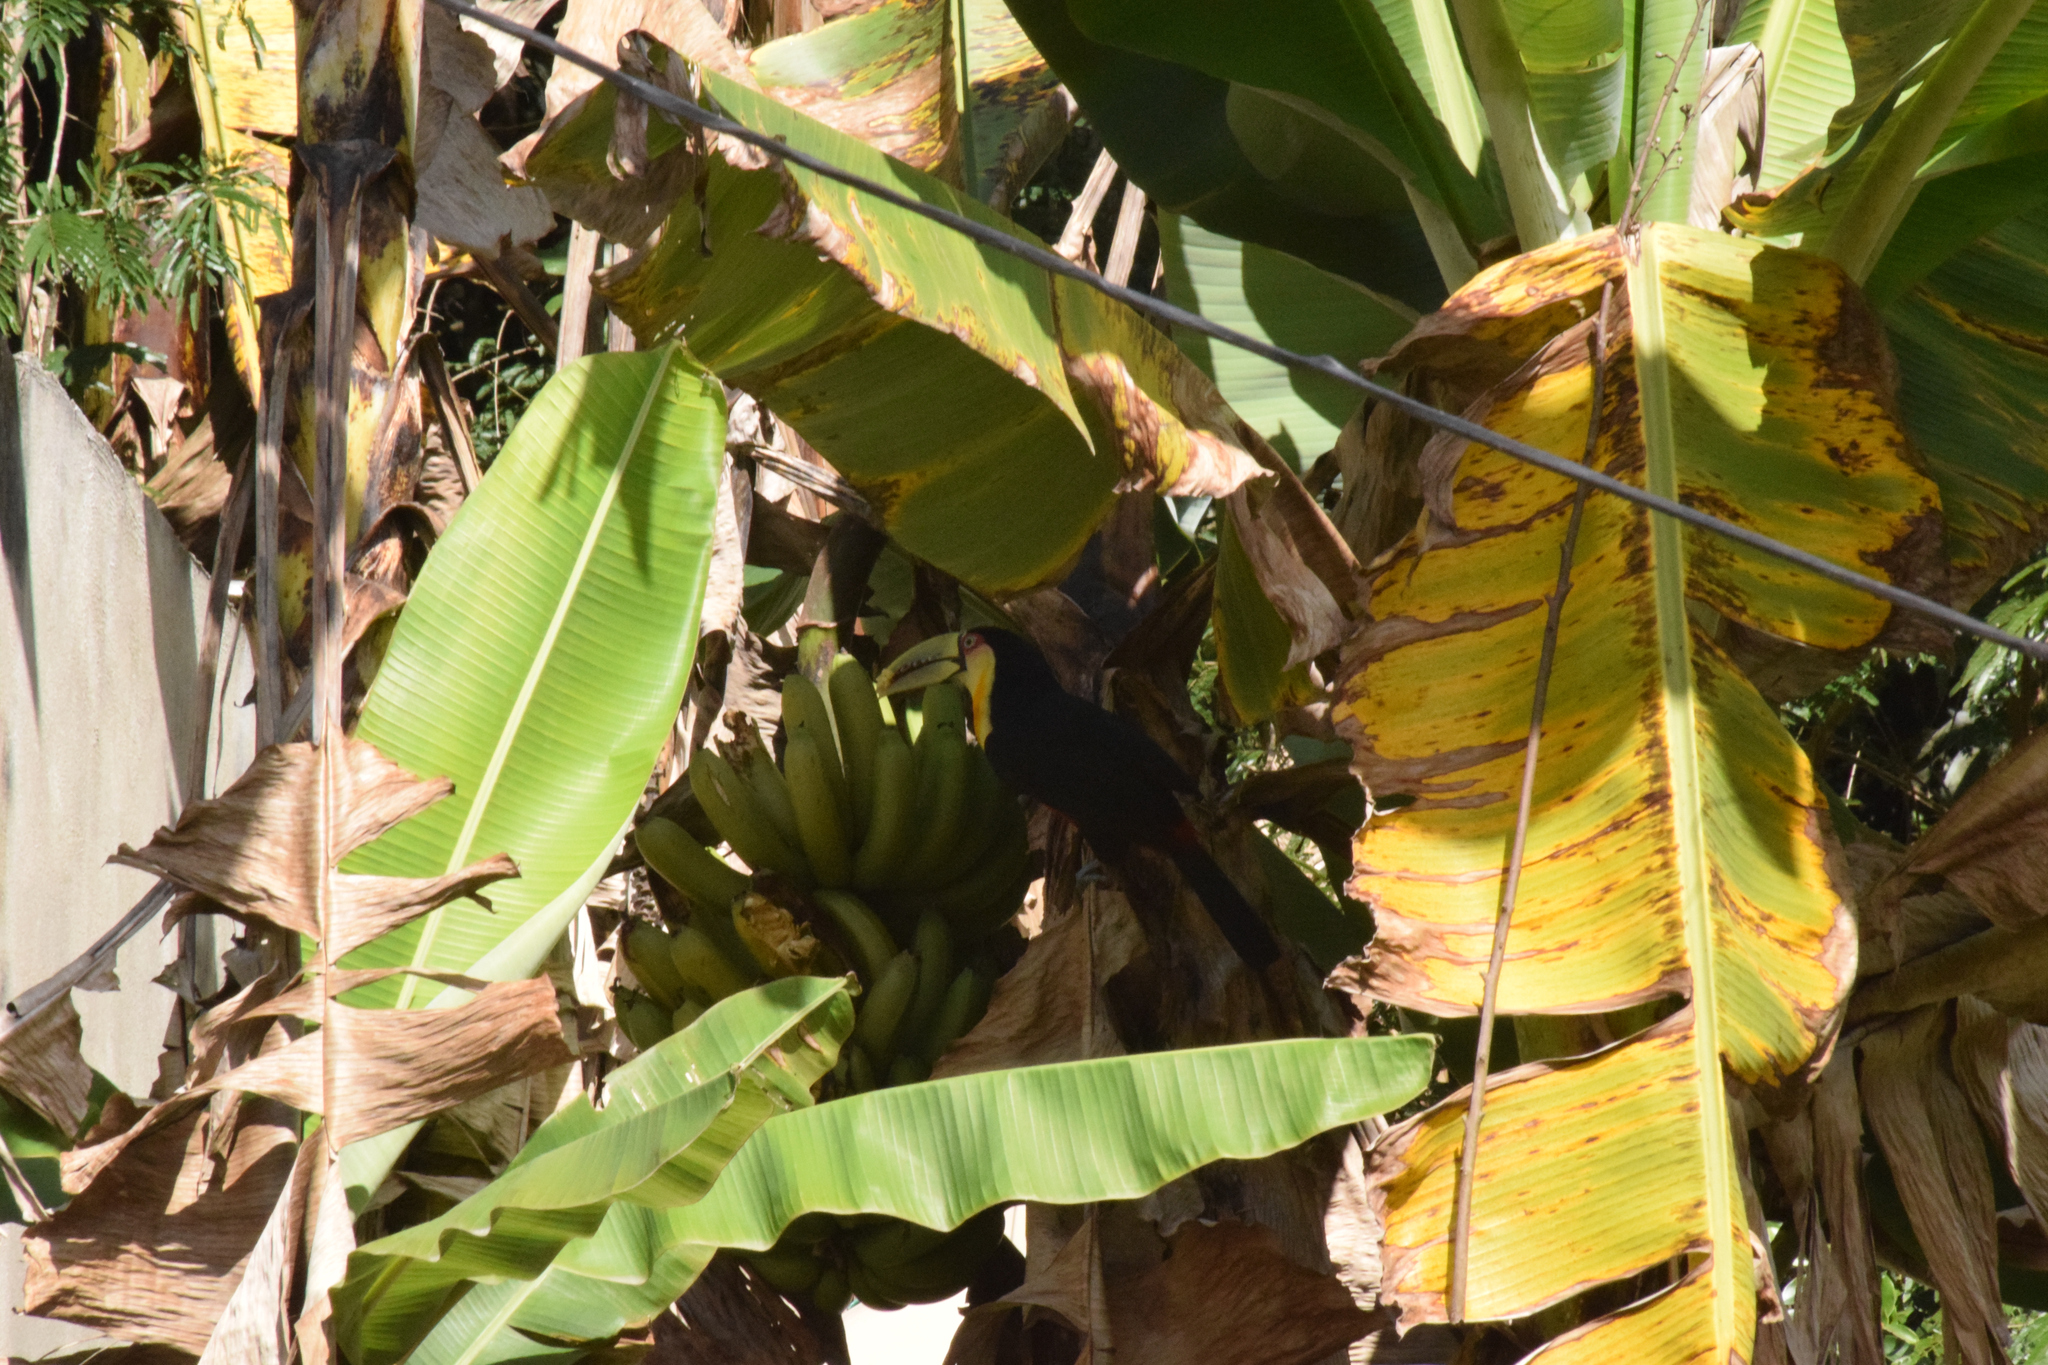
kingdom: Animalia
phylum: Chordata
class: Aves
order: Piciformes
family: Ramphastidae
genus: Ramphastos
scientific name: Ramphastos dicolorus
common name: Green-billed toucan
